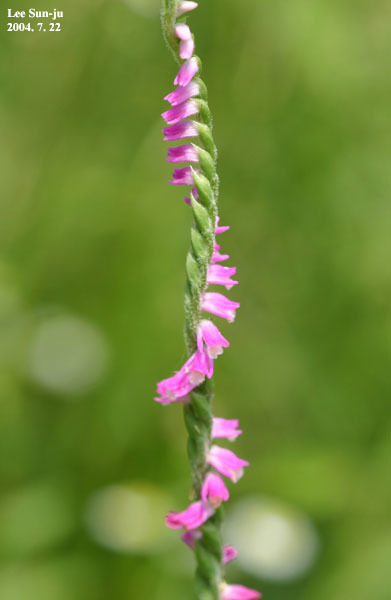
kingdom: Plantae
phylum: Tracheophyta
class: Liliopsida
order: Asparagales
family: Orchidaceae
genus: Spiranthes
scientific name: Spiranthes australis
